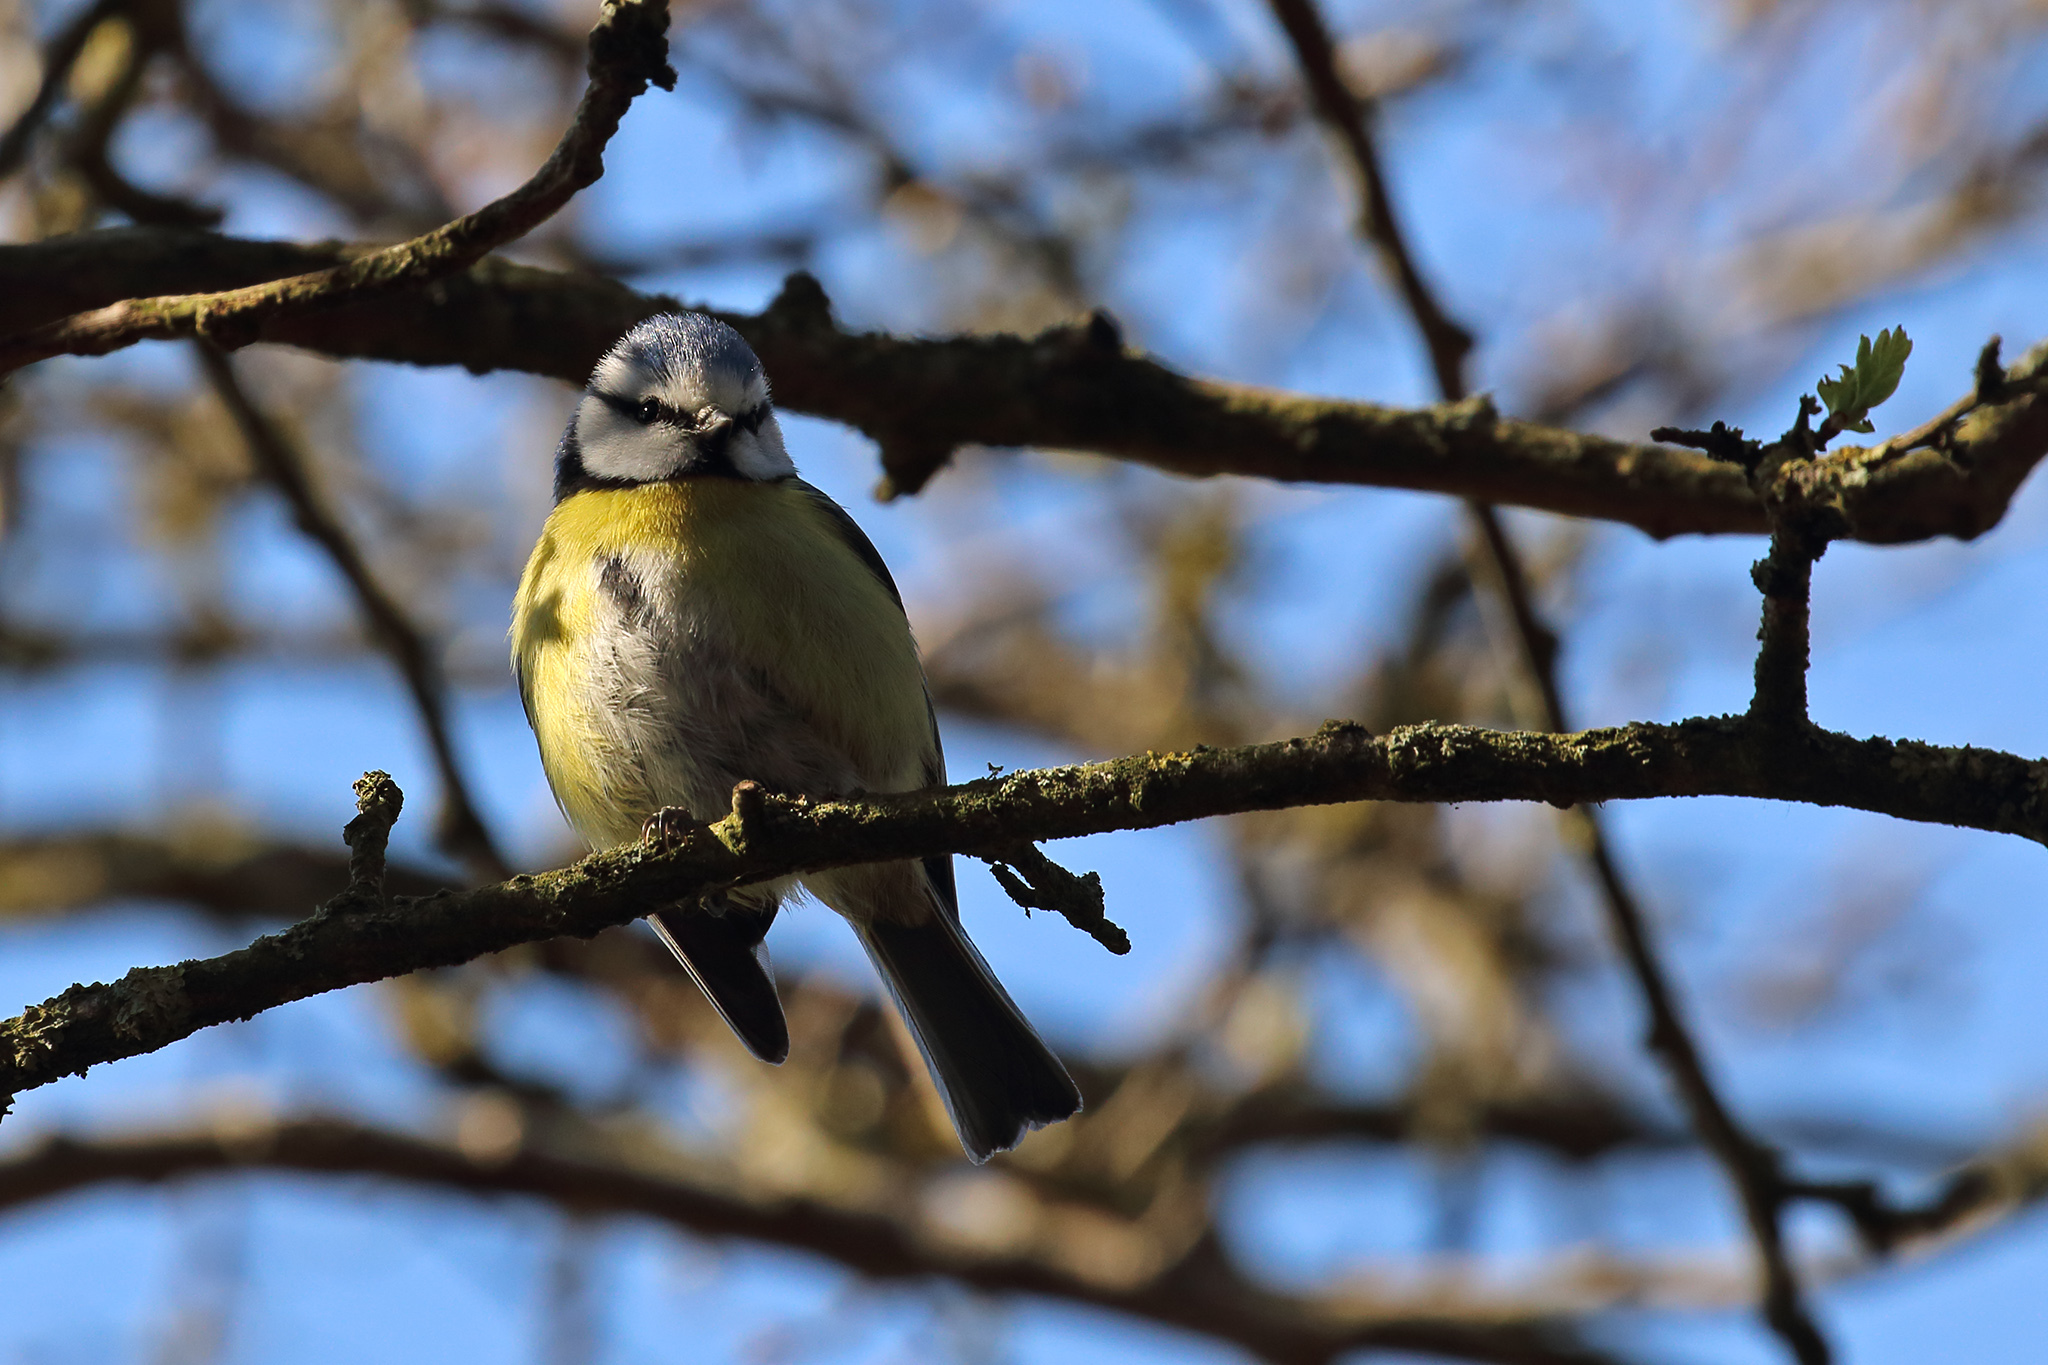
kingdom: Animalia
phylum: Chordata
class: Aves
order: Passeriformes
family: Paridae
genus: Cyanistes
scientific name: Cyanistes caeruleus
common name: Eurasian blue tit
